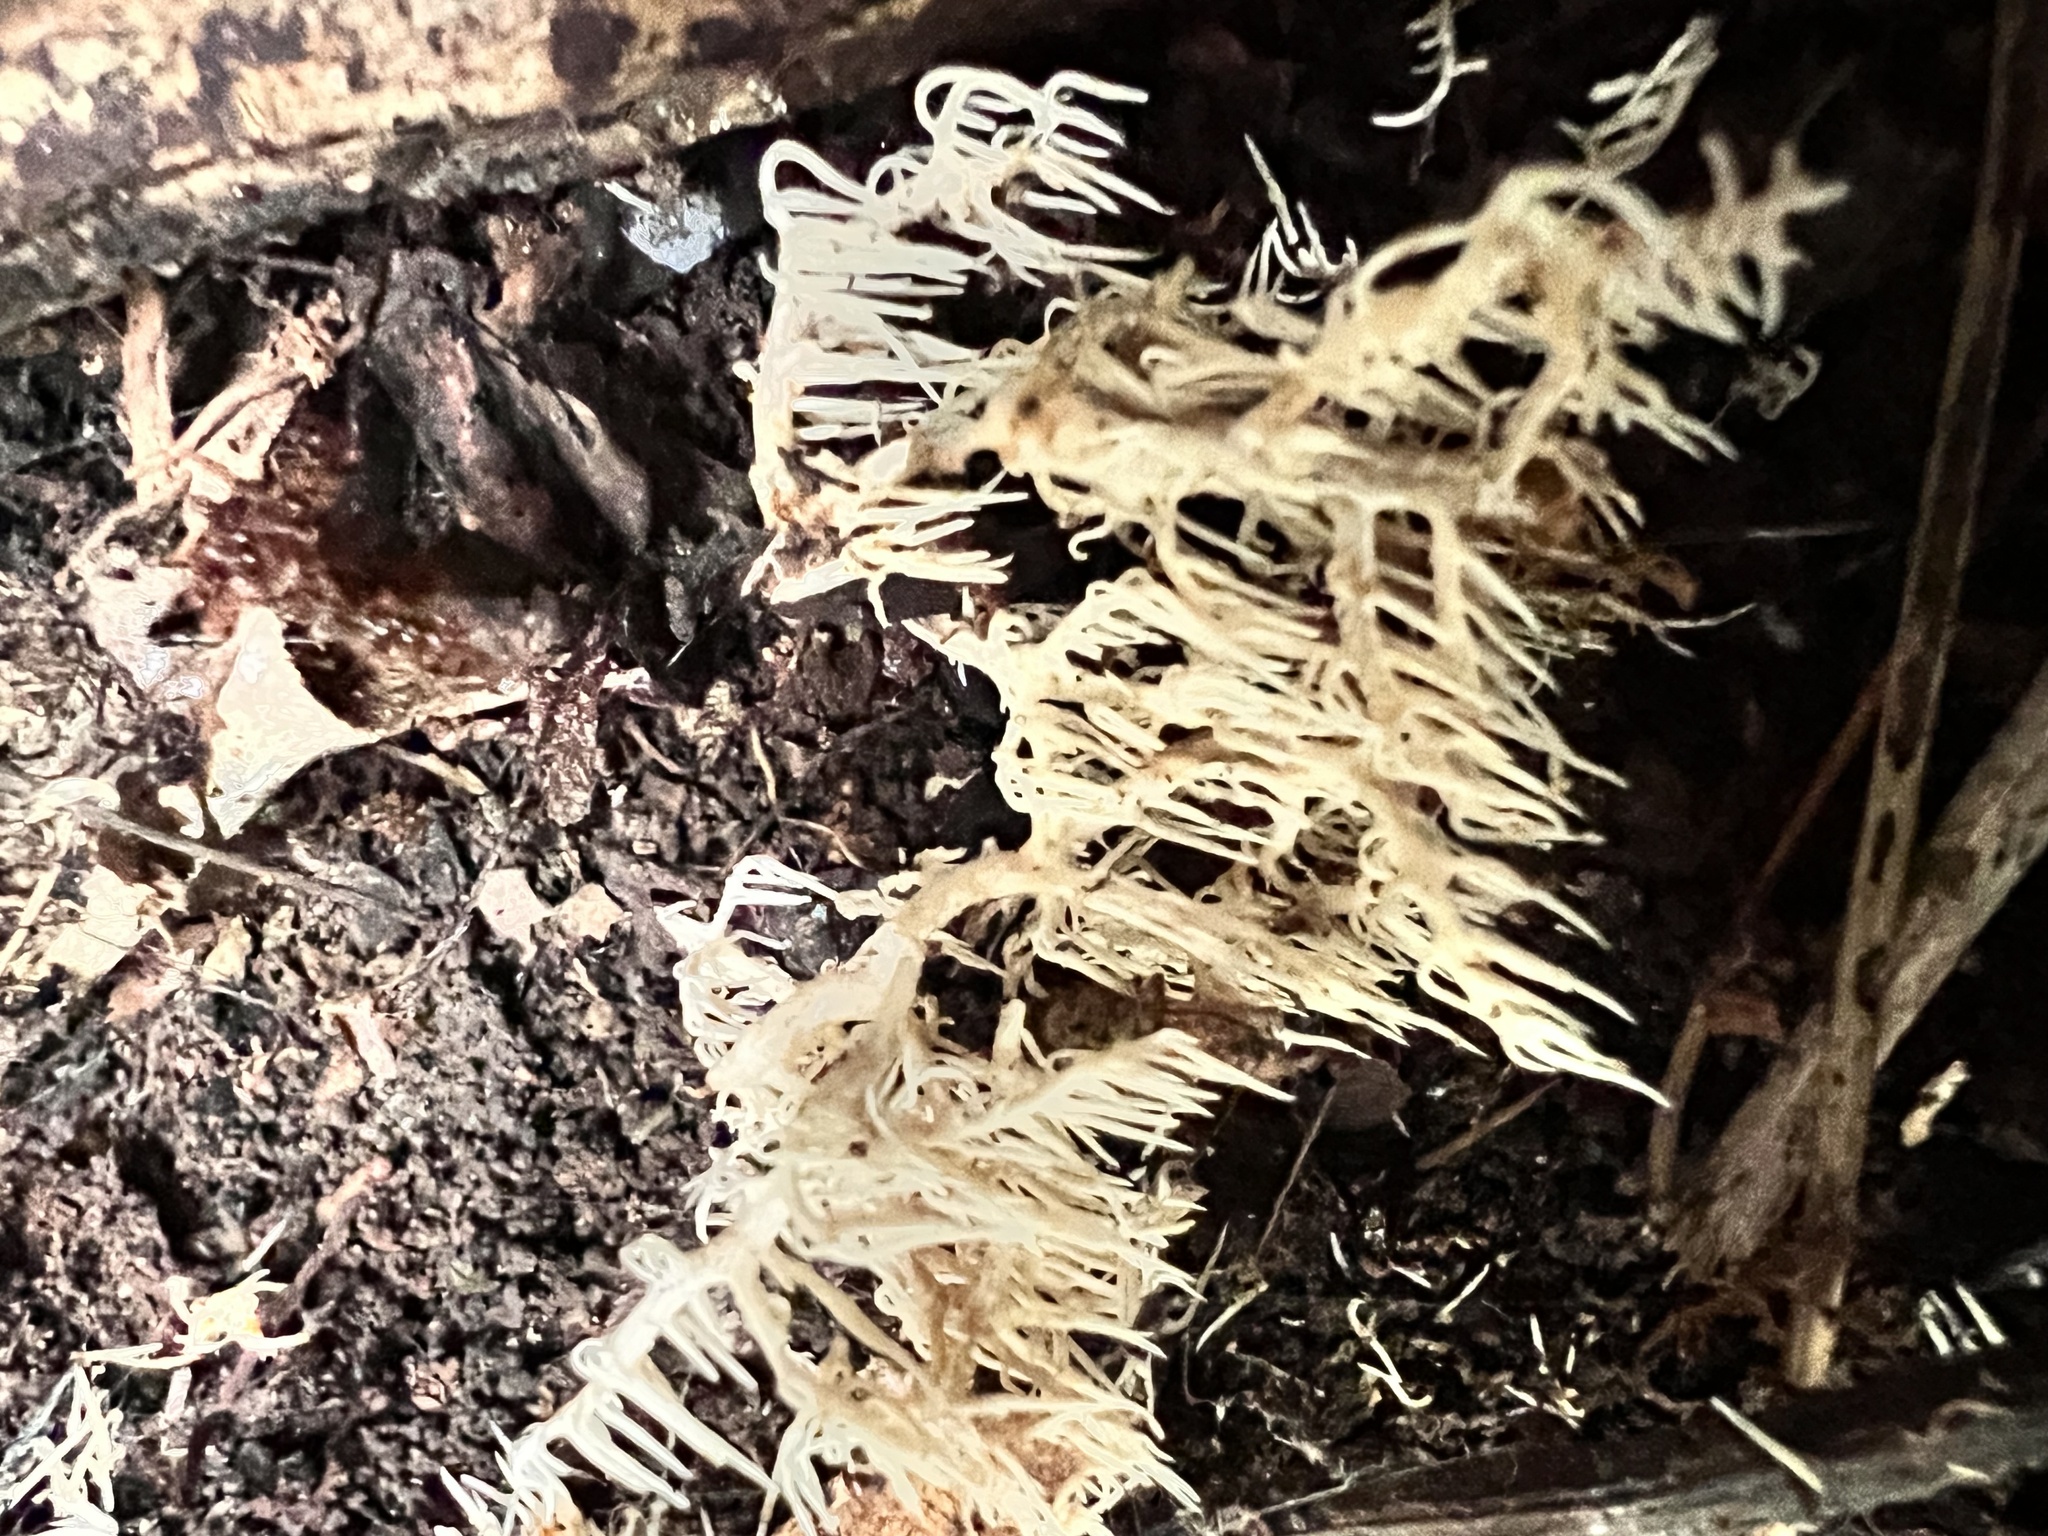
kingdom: Fungi
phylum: Basidiomycota
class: Agaricomycetes
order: Russulales
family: Hericiaceae
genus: Hericium
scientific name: Hericium novae-zealandiae
